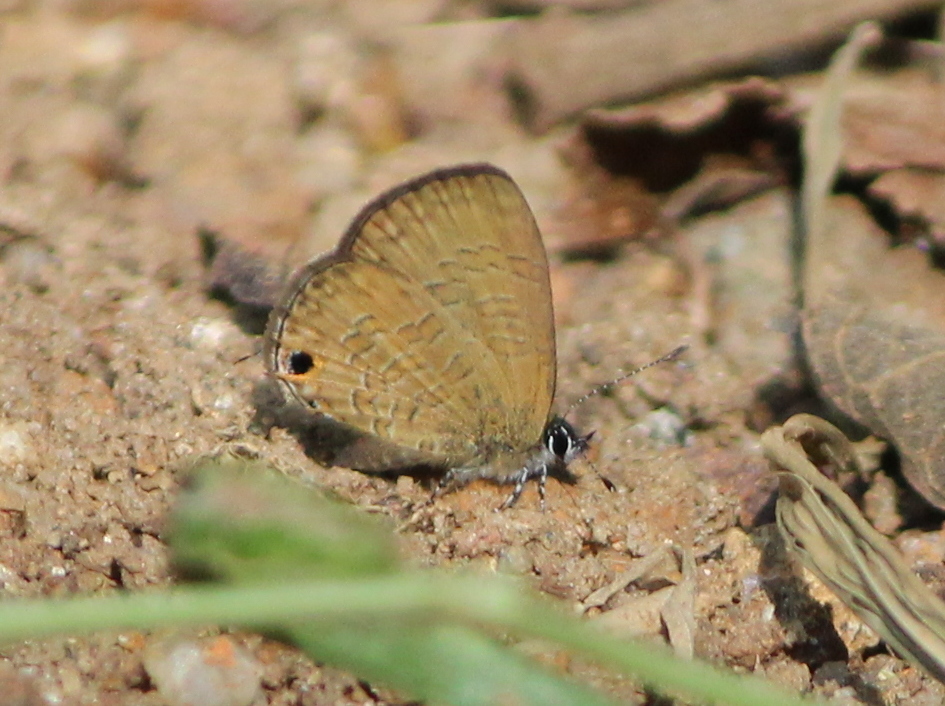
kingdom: Animalia
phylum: Arthropoda
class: Insecta
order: Lepidoptera
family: Lycaenidae
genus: Prosotas
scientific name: Prosotas nora
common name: Common line blue
